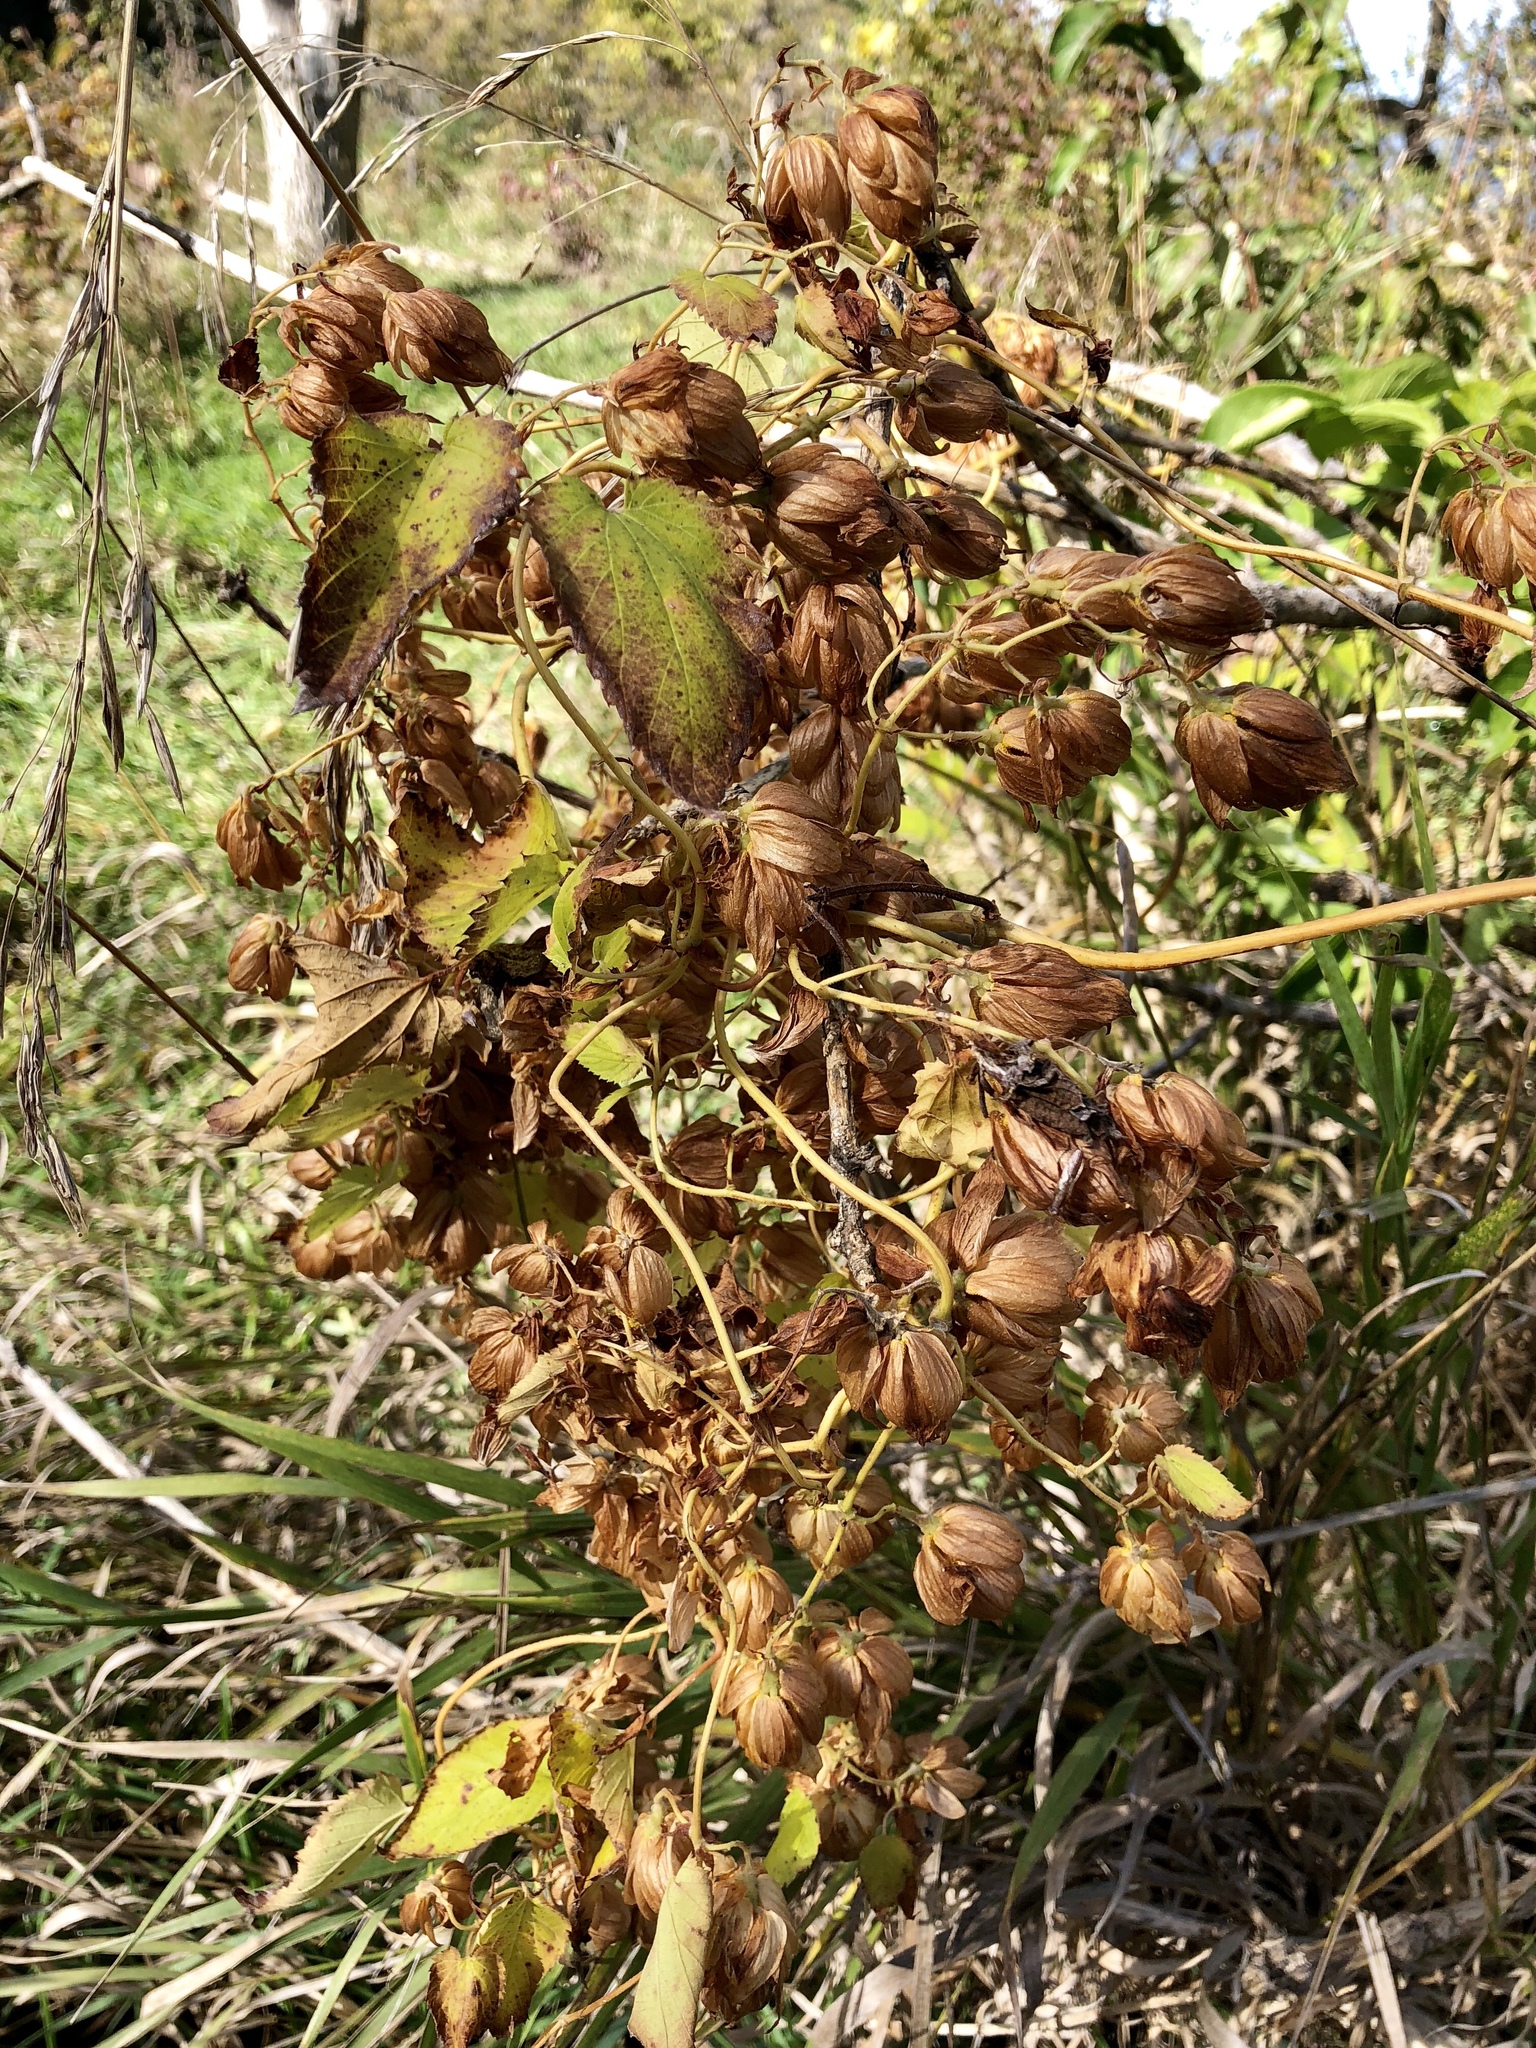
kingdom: Plantae
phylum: Tracheophyta
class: Magnoliopsida
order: Rosales
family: Cannabaceae
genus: Humulus
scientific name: Humulus lupulus
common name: Hop
